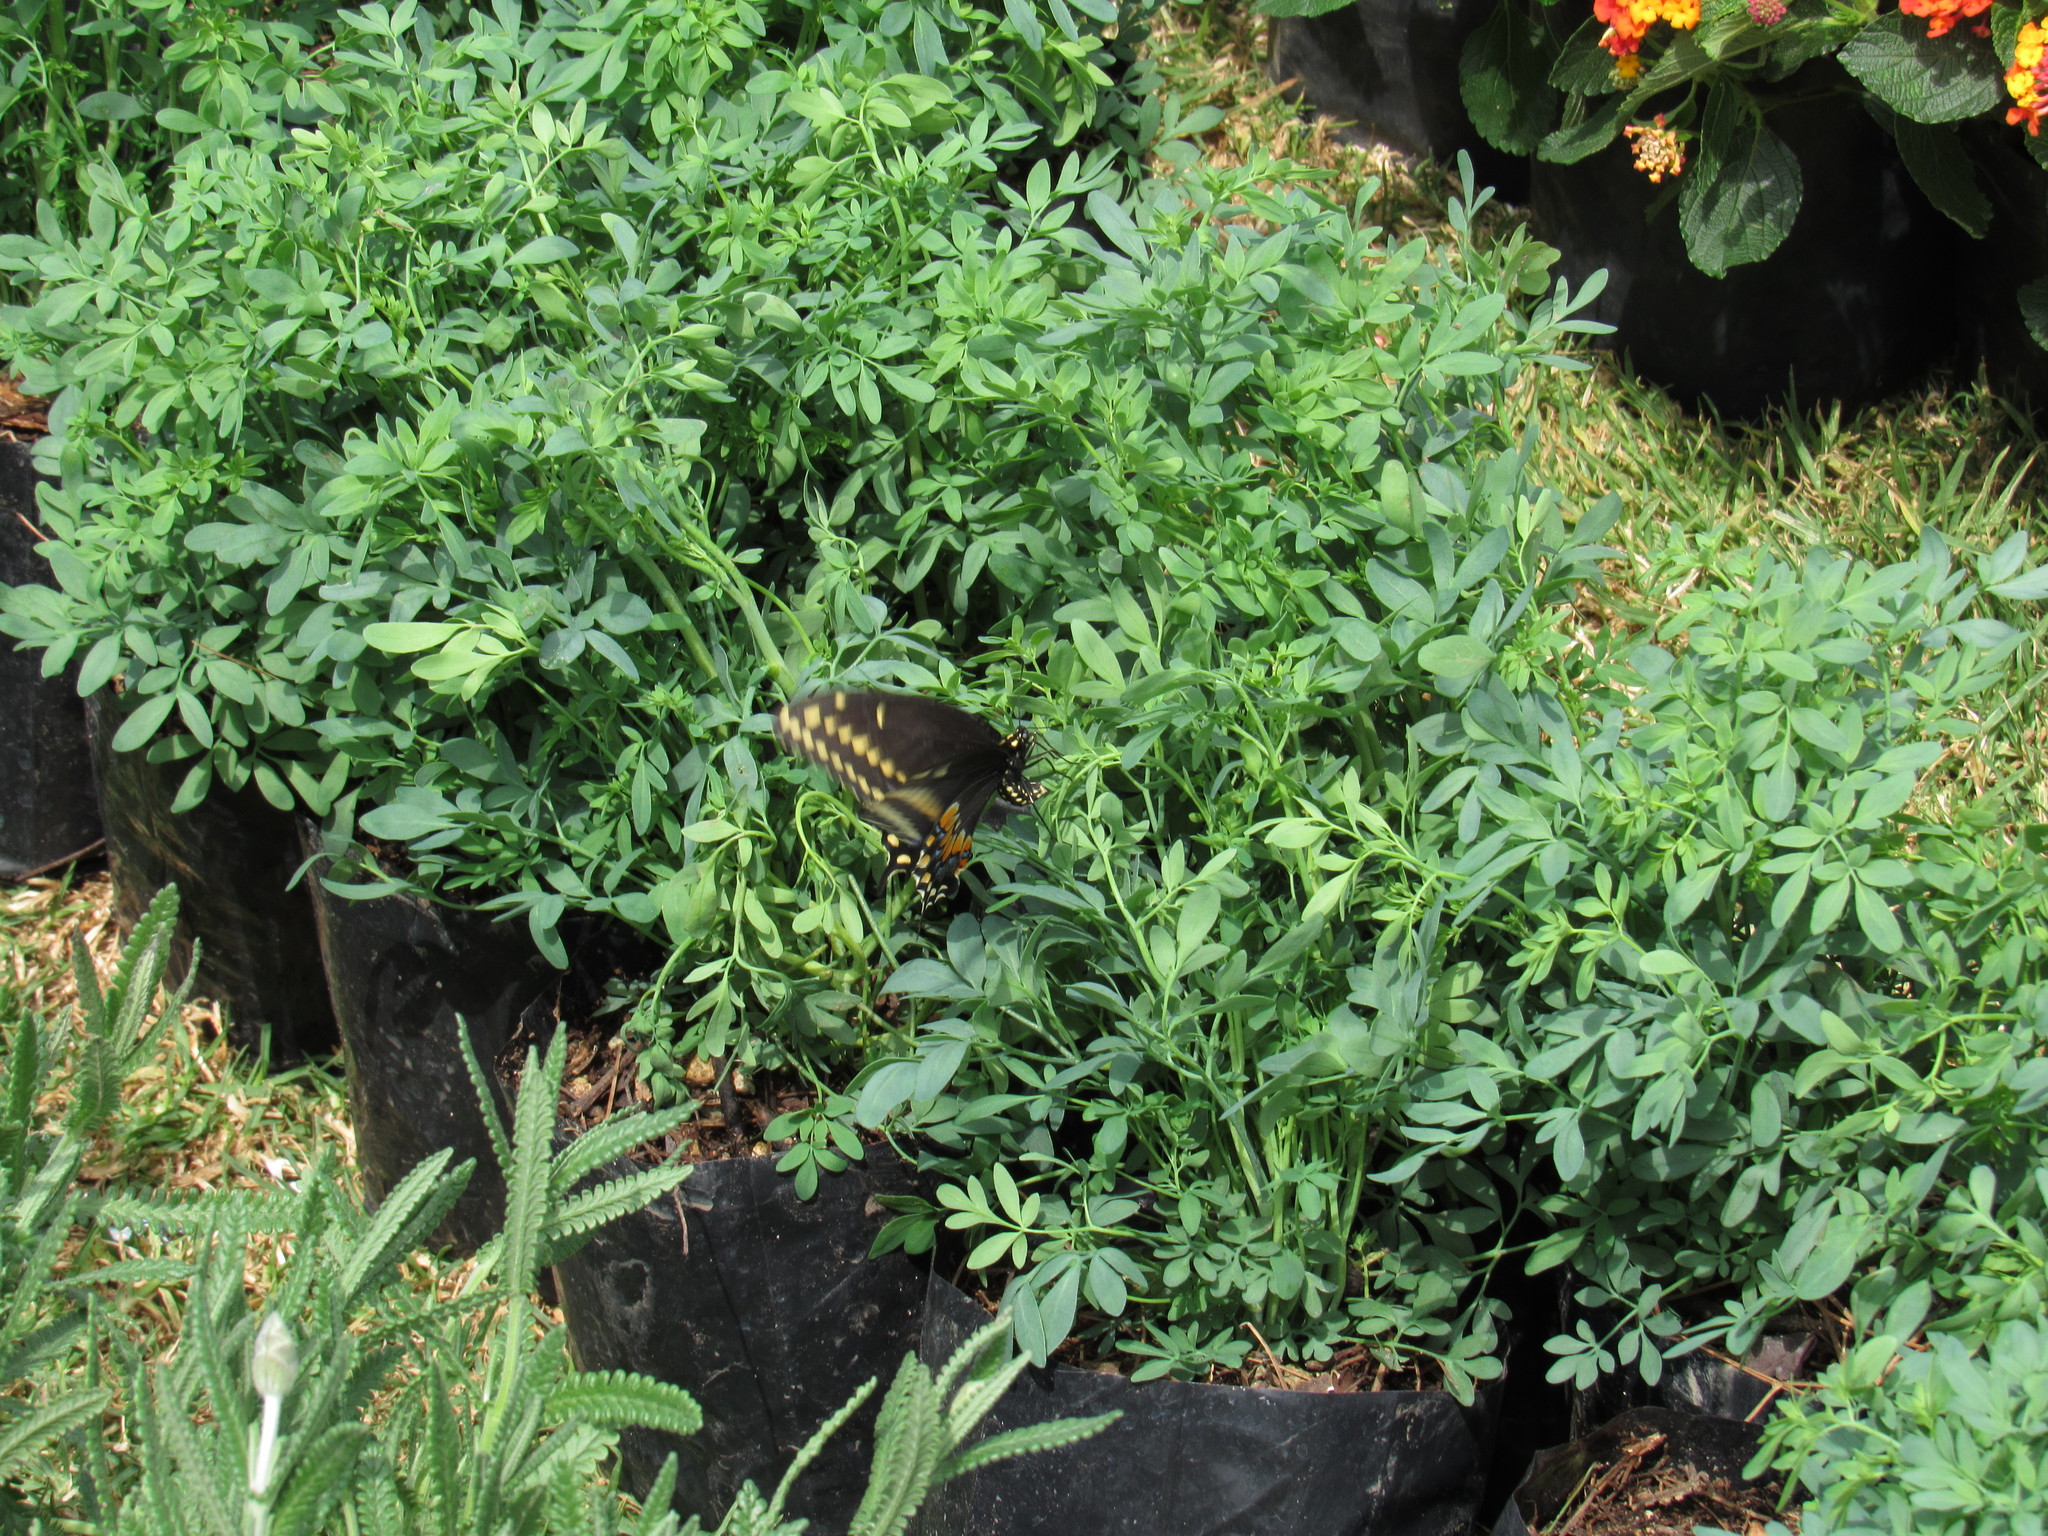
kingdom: Animalia
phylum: Arthropoda
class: Insecta
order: Lepidoptera
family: Papilionidae
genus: Papilio
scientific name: Papilio polyxenes
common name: Black swallowtail
